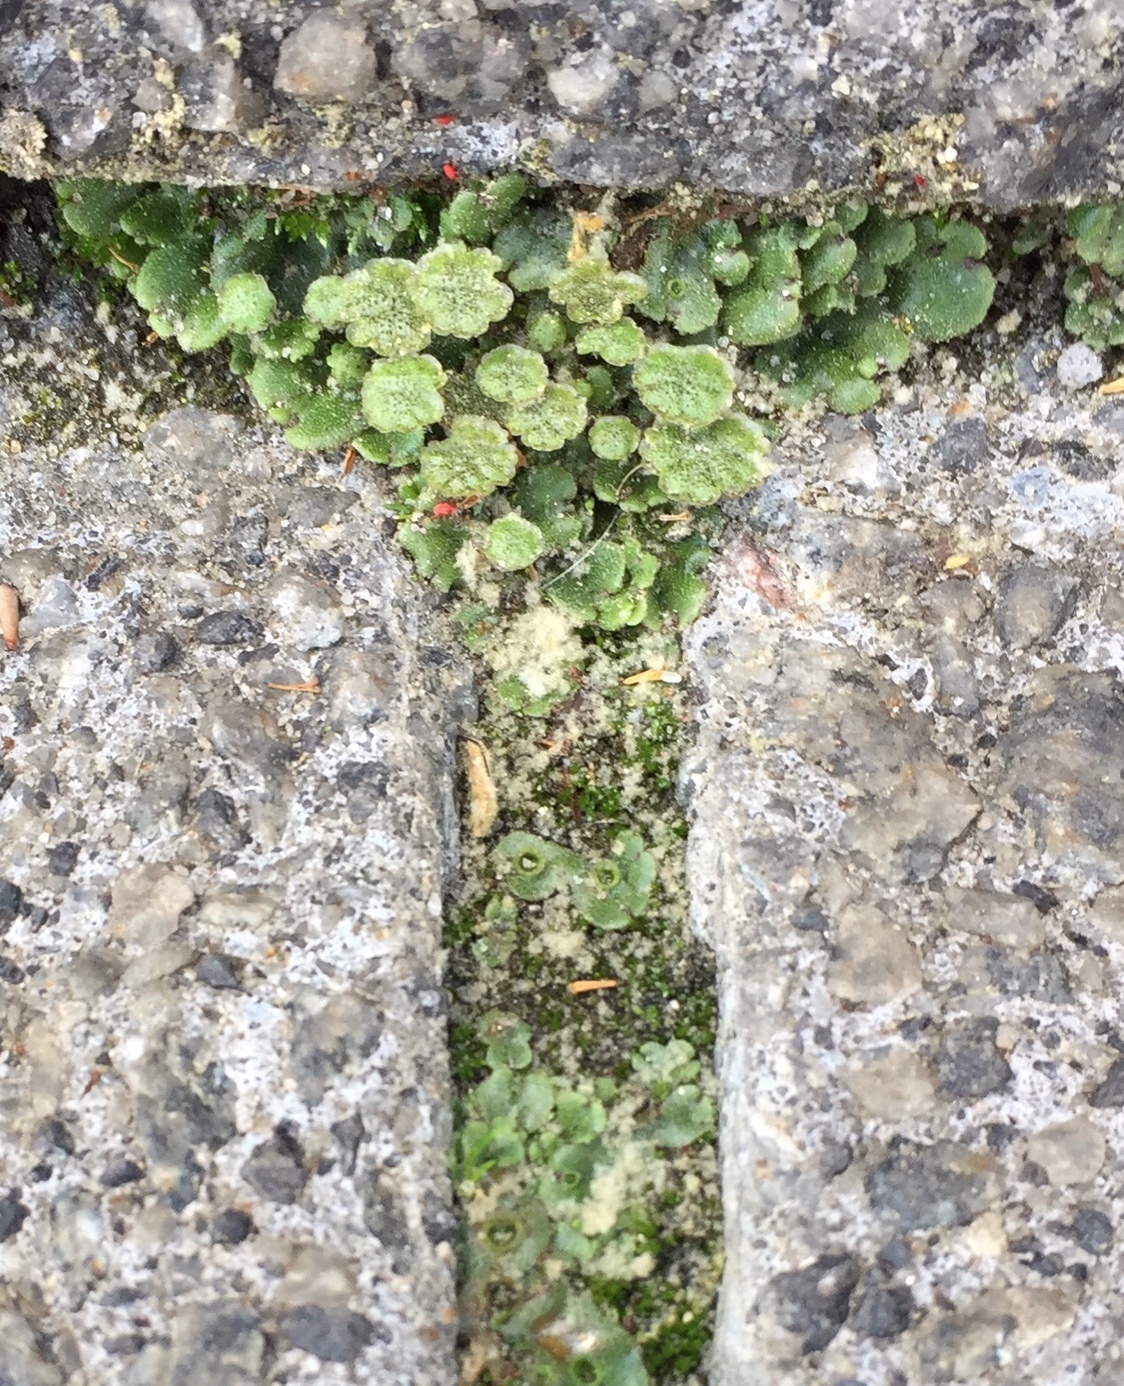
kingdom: Plantae
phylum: Marchantiophyta
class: Marchantiopsida
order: Marchantiales
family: Marchantiaceae
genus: Marchantia
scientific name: Marchantia polymorpha
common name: Common liverwort
